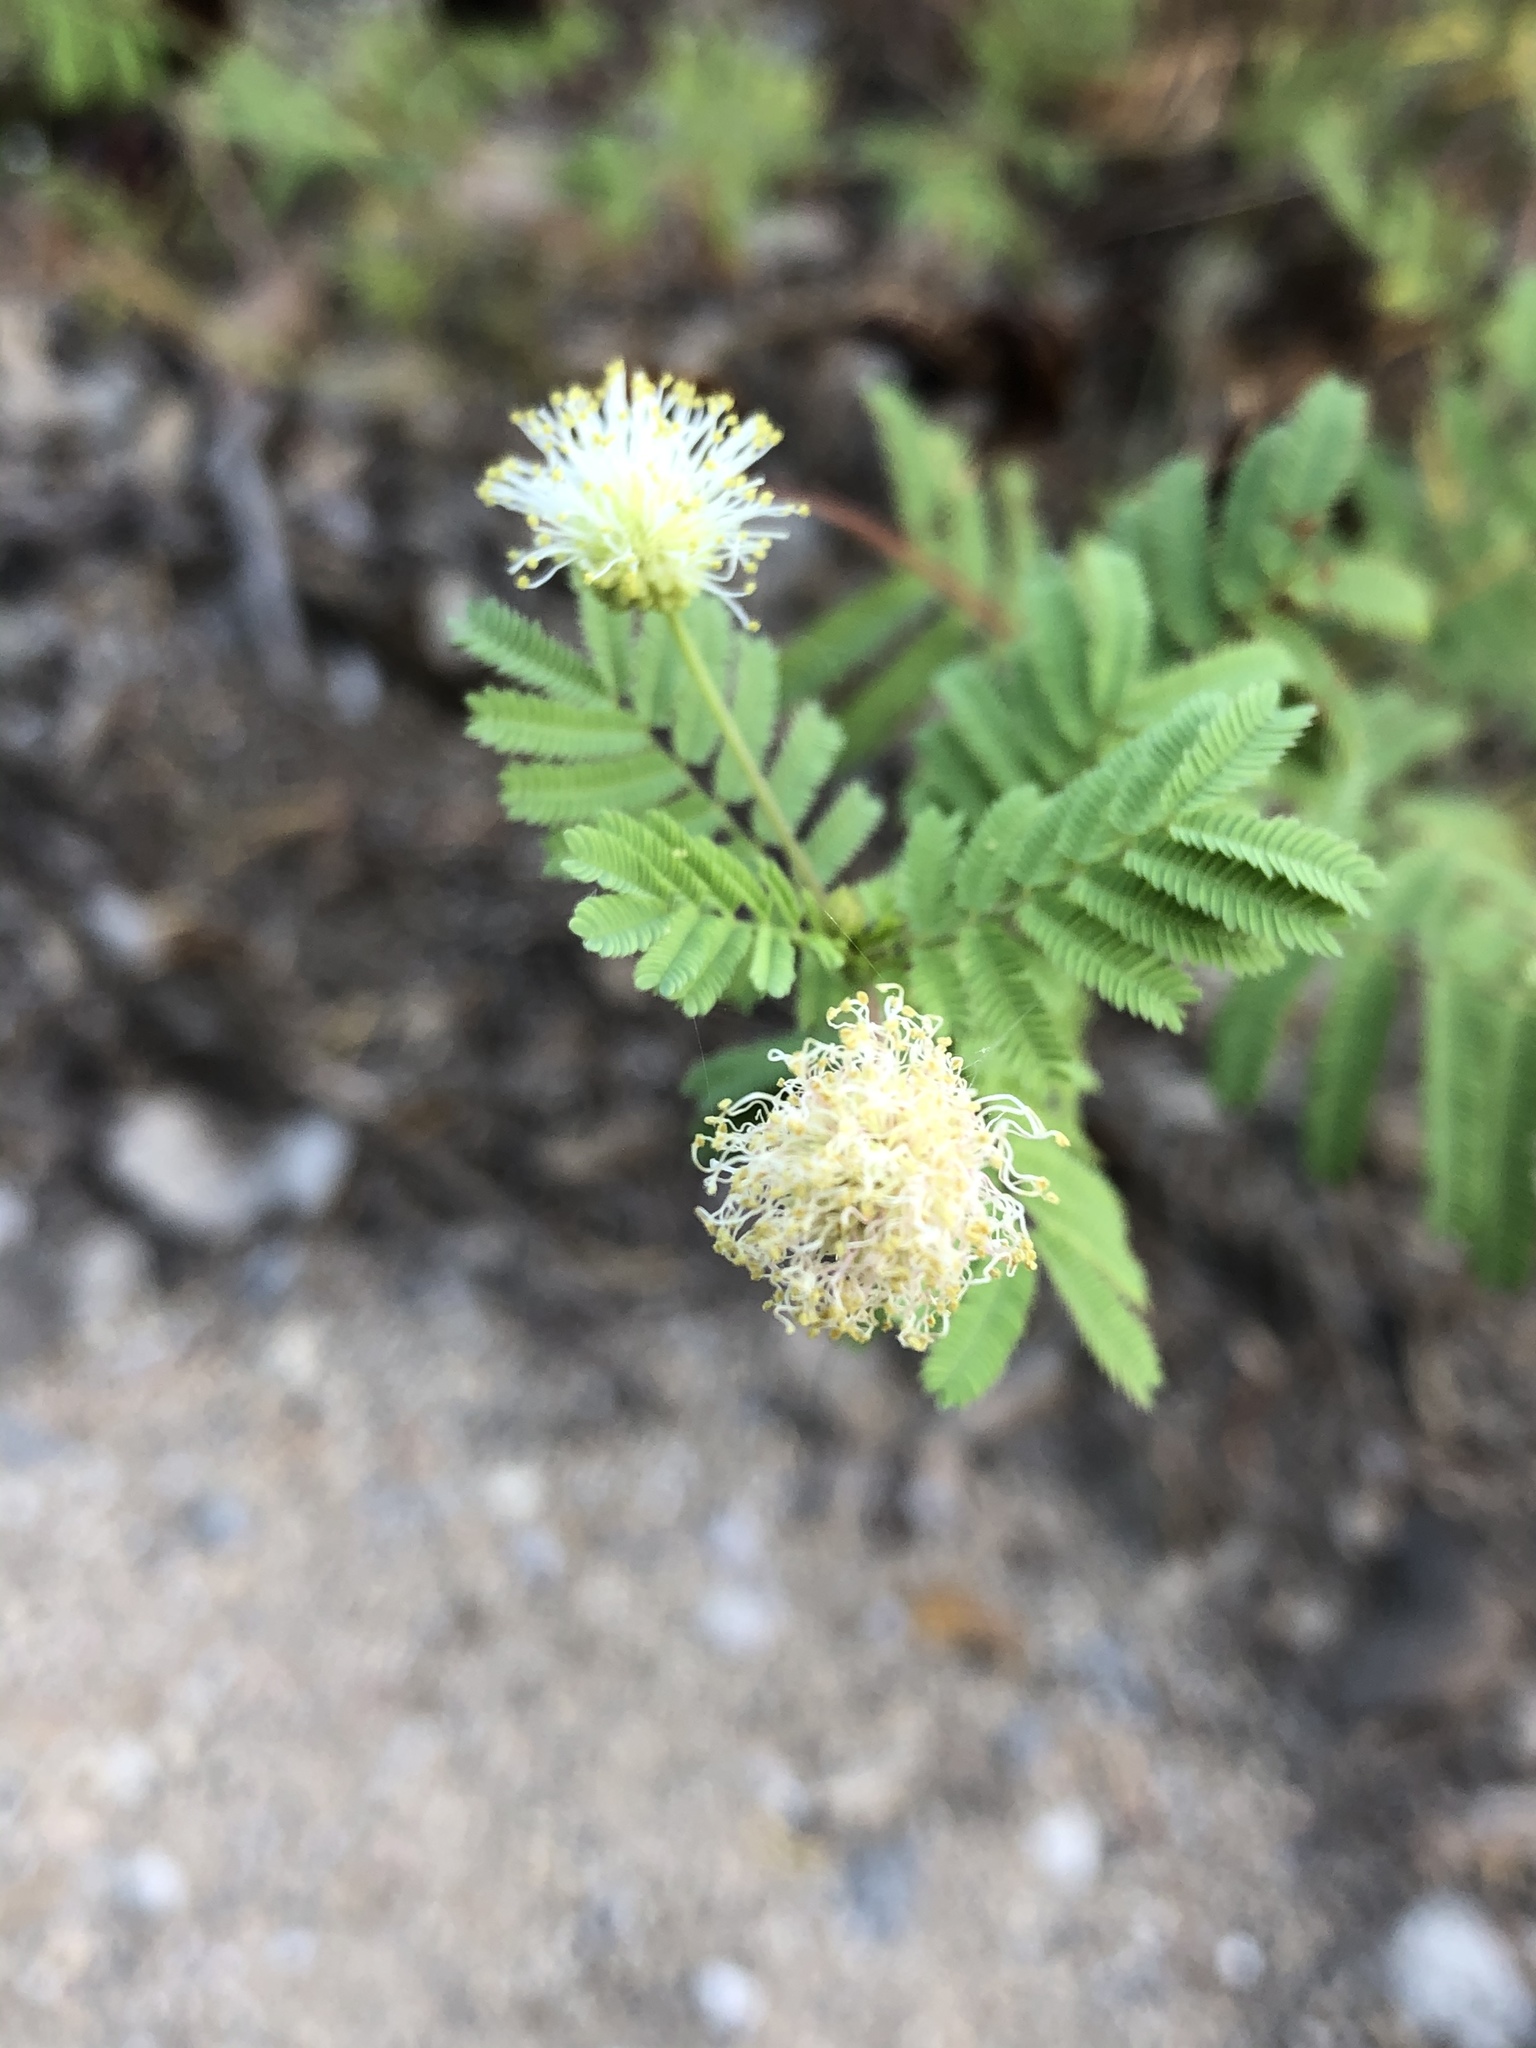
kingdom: Plantae
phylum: Tracheophyta
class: Magnoliopsida
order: Fabales
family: Fabaceae
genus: Desmanthus
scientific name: Desmanthus illinoensis
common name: Illinois bundle-flower
